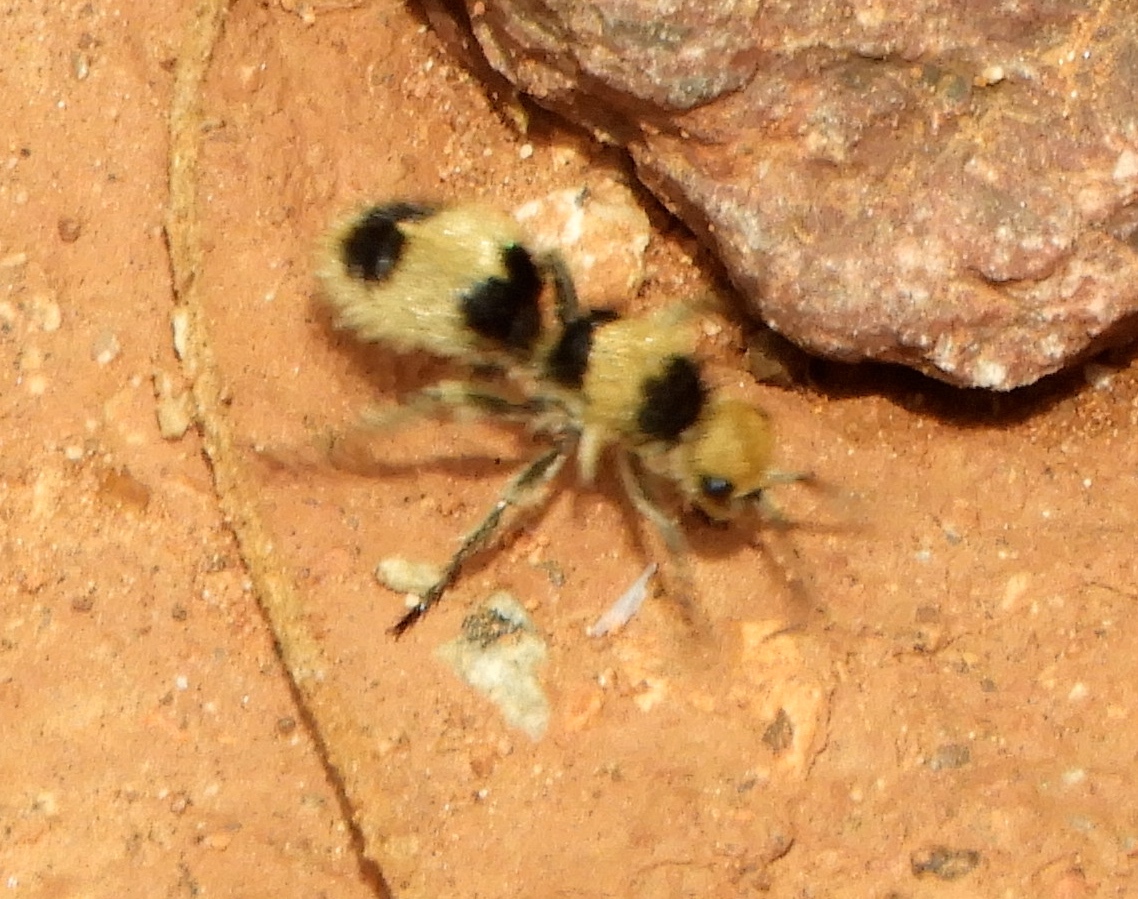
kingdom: Animalia
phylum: Arthropoda
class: Insecta
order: Hymenoptera
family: Mutillidae
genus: Dasymutilla
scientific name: Dasymutilla
